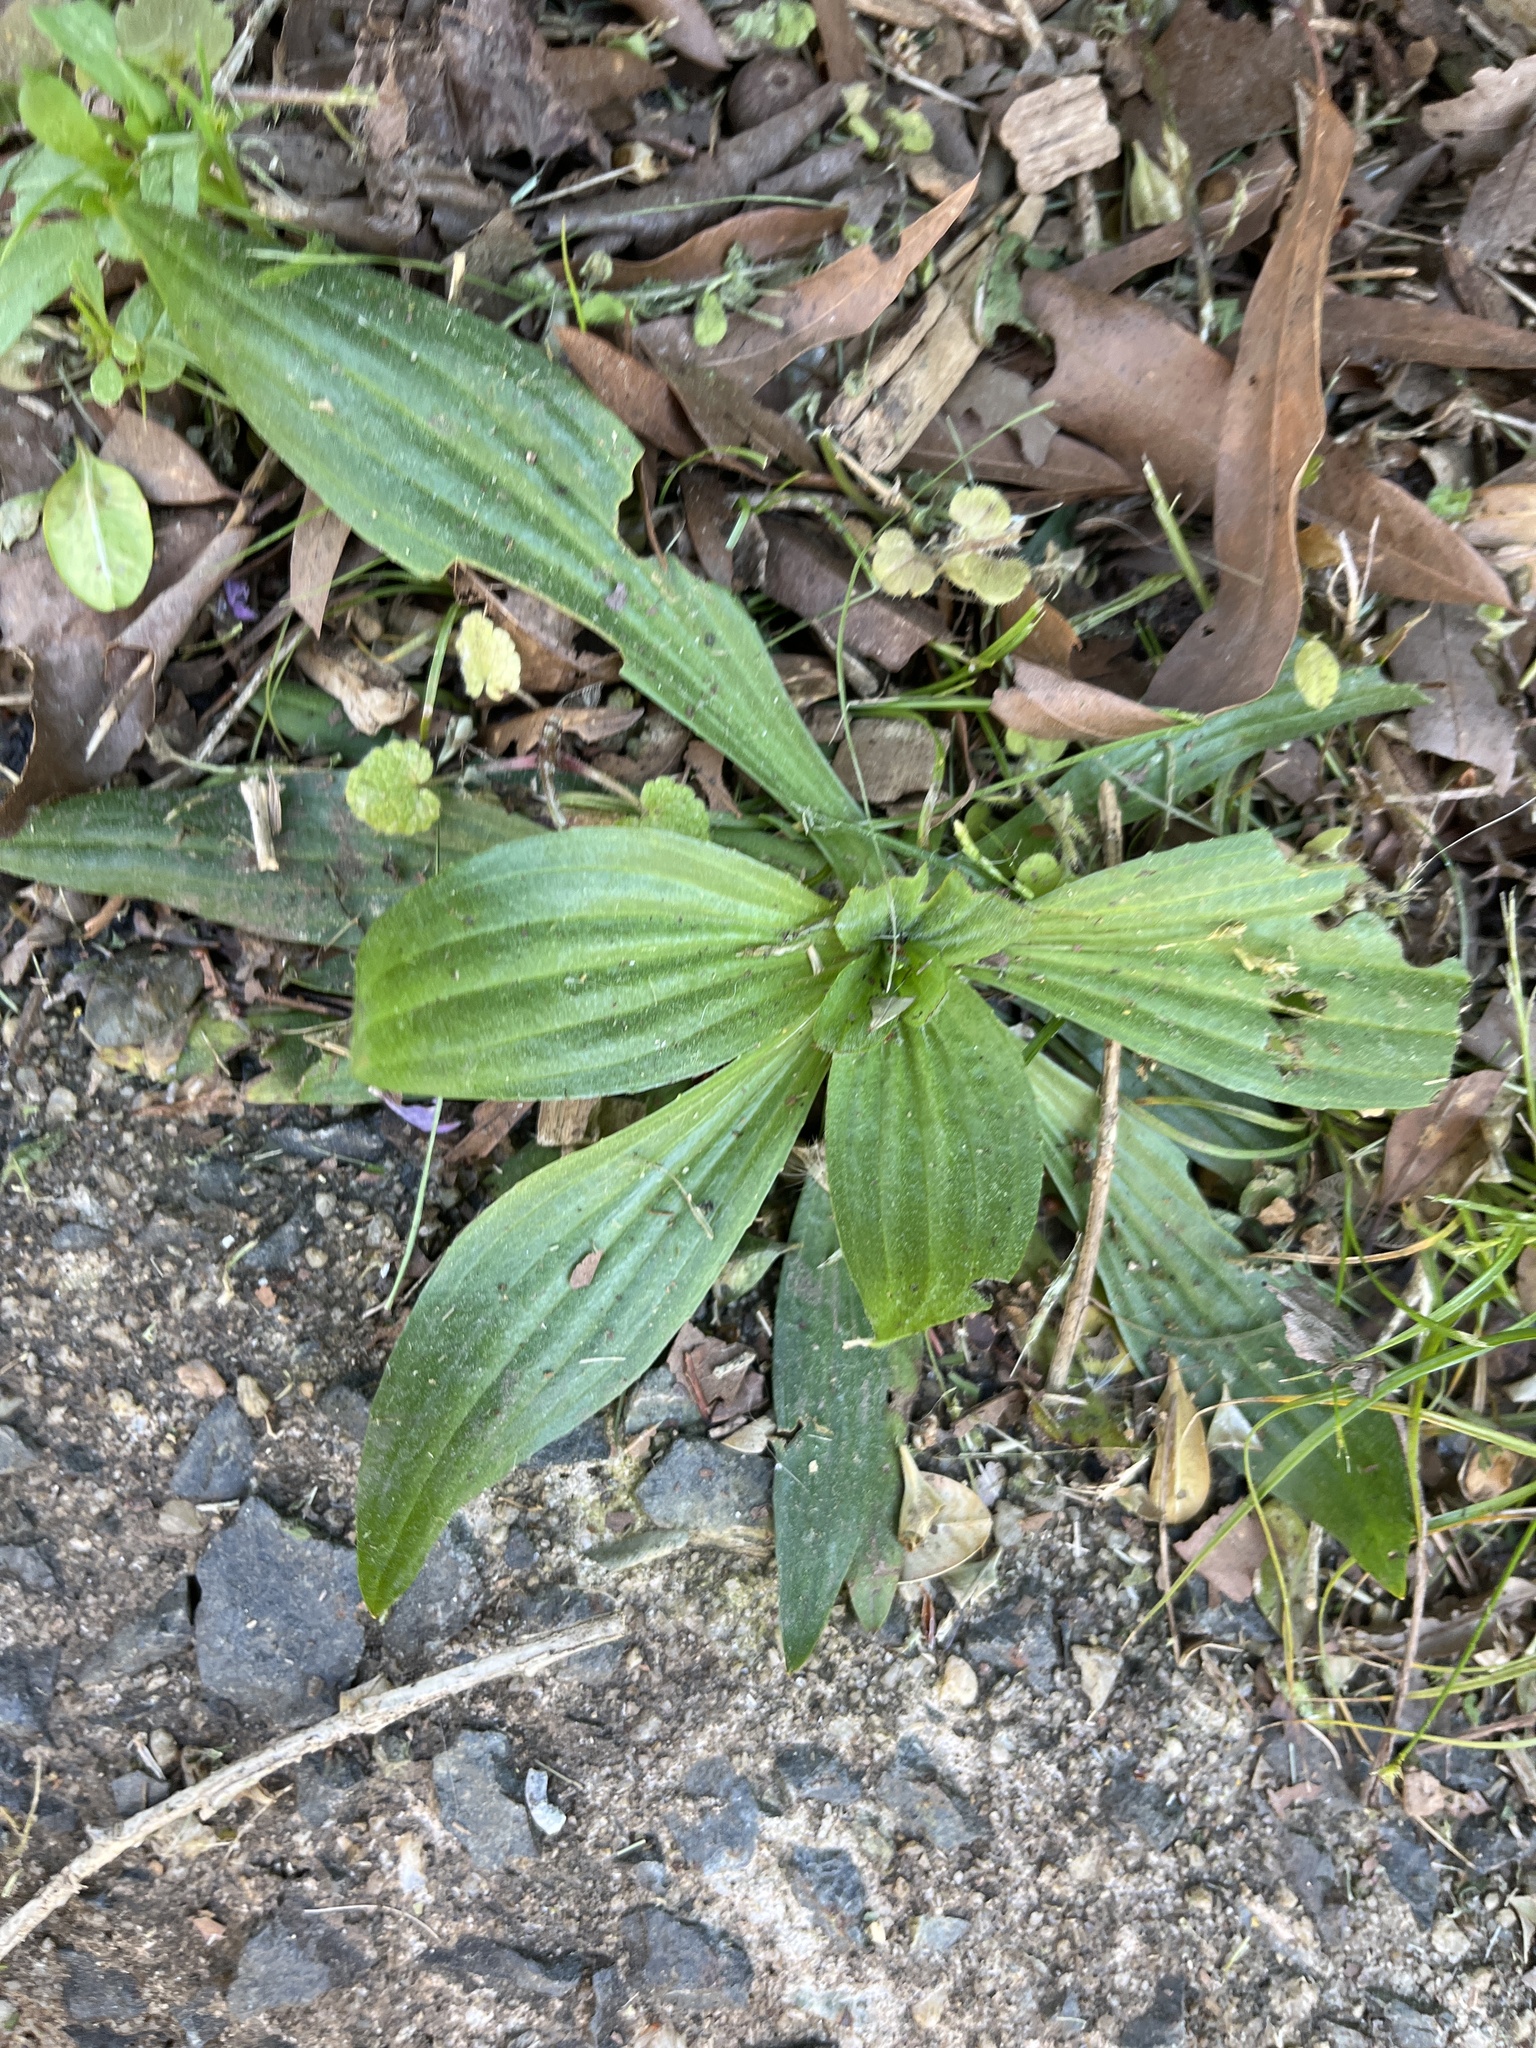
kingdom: Plantae
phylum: Tracheophyta
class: Magnoliopsida
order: Lamiales
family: Plantaginaceae
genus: Plantago
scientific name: Plantago lanceolata
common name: Ribwort plantain
